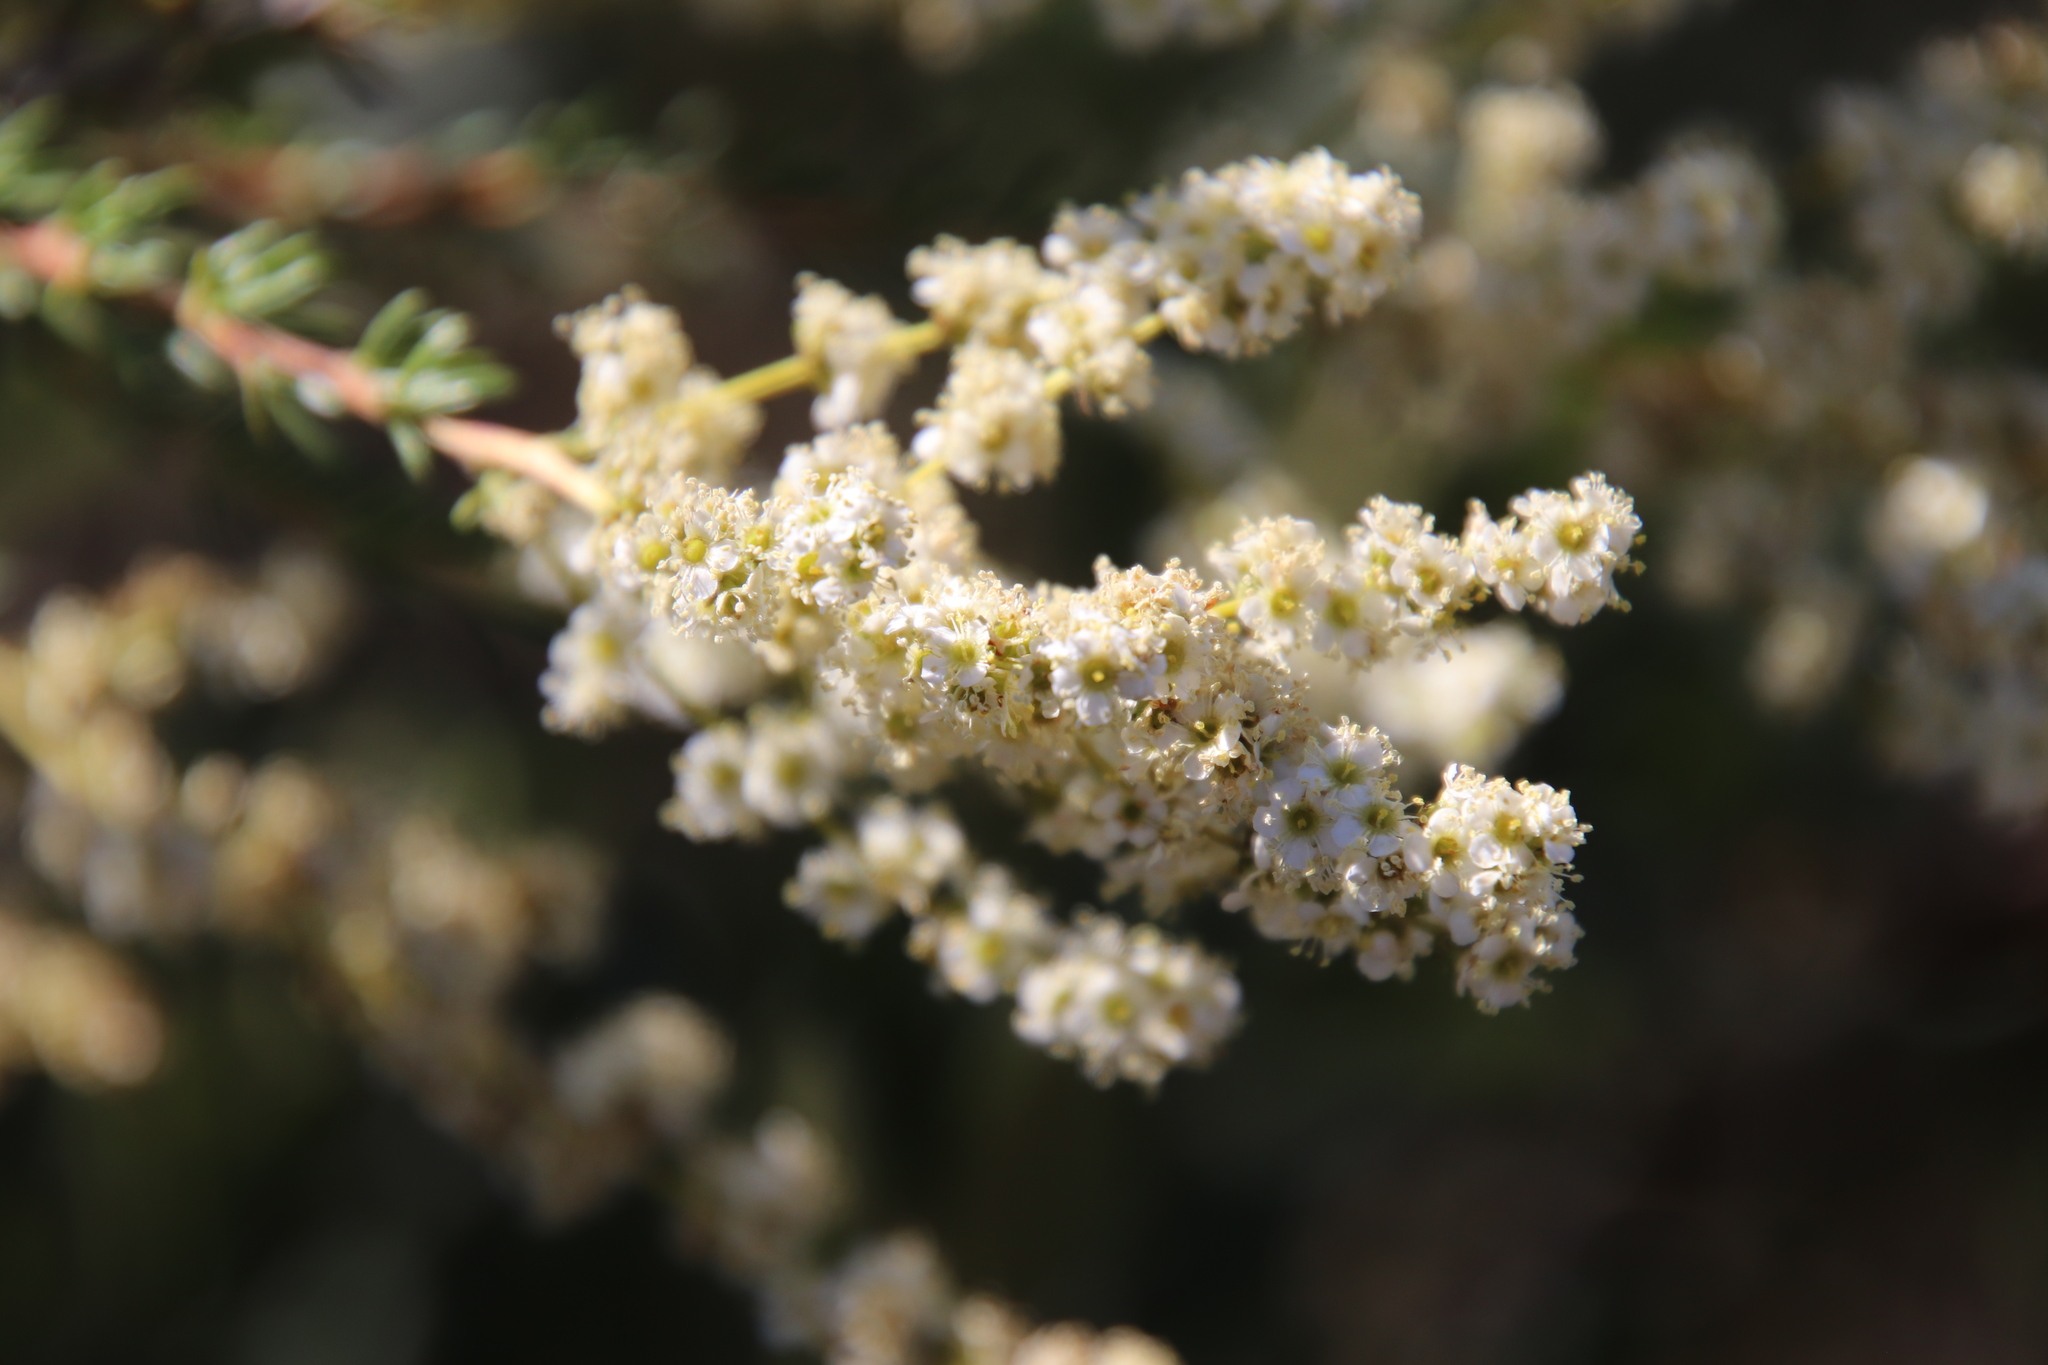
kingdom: Plantae
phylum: Tracheophyta
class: Magnoliopsida
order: Rosales
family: Rosaceae
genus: Adenostoma
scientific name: Adenostoma fasciculatum
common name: Chamise
